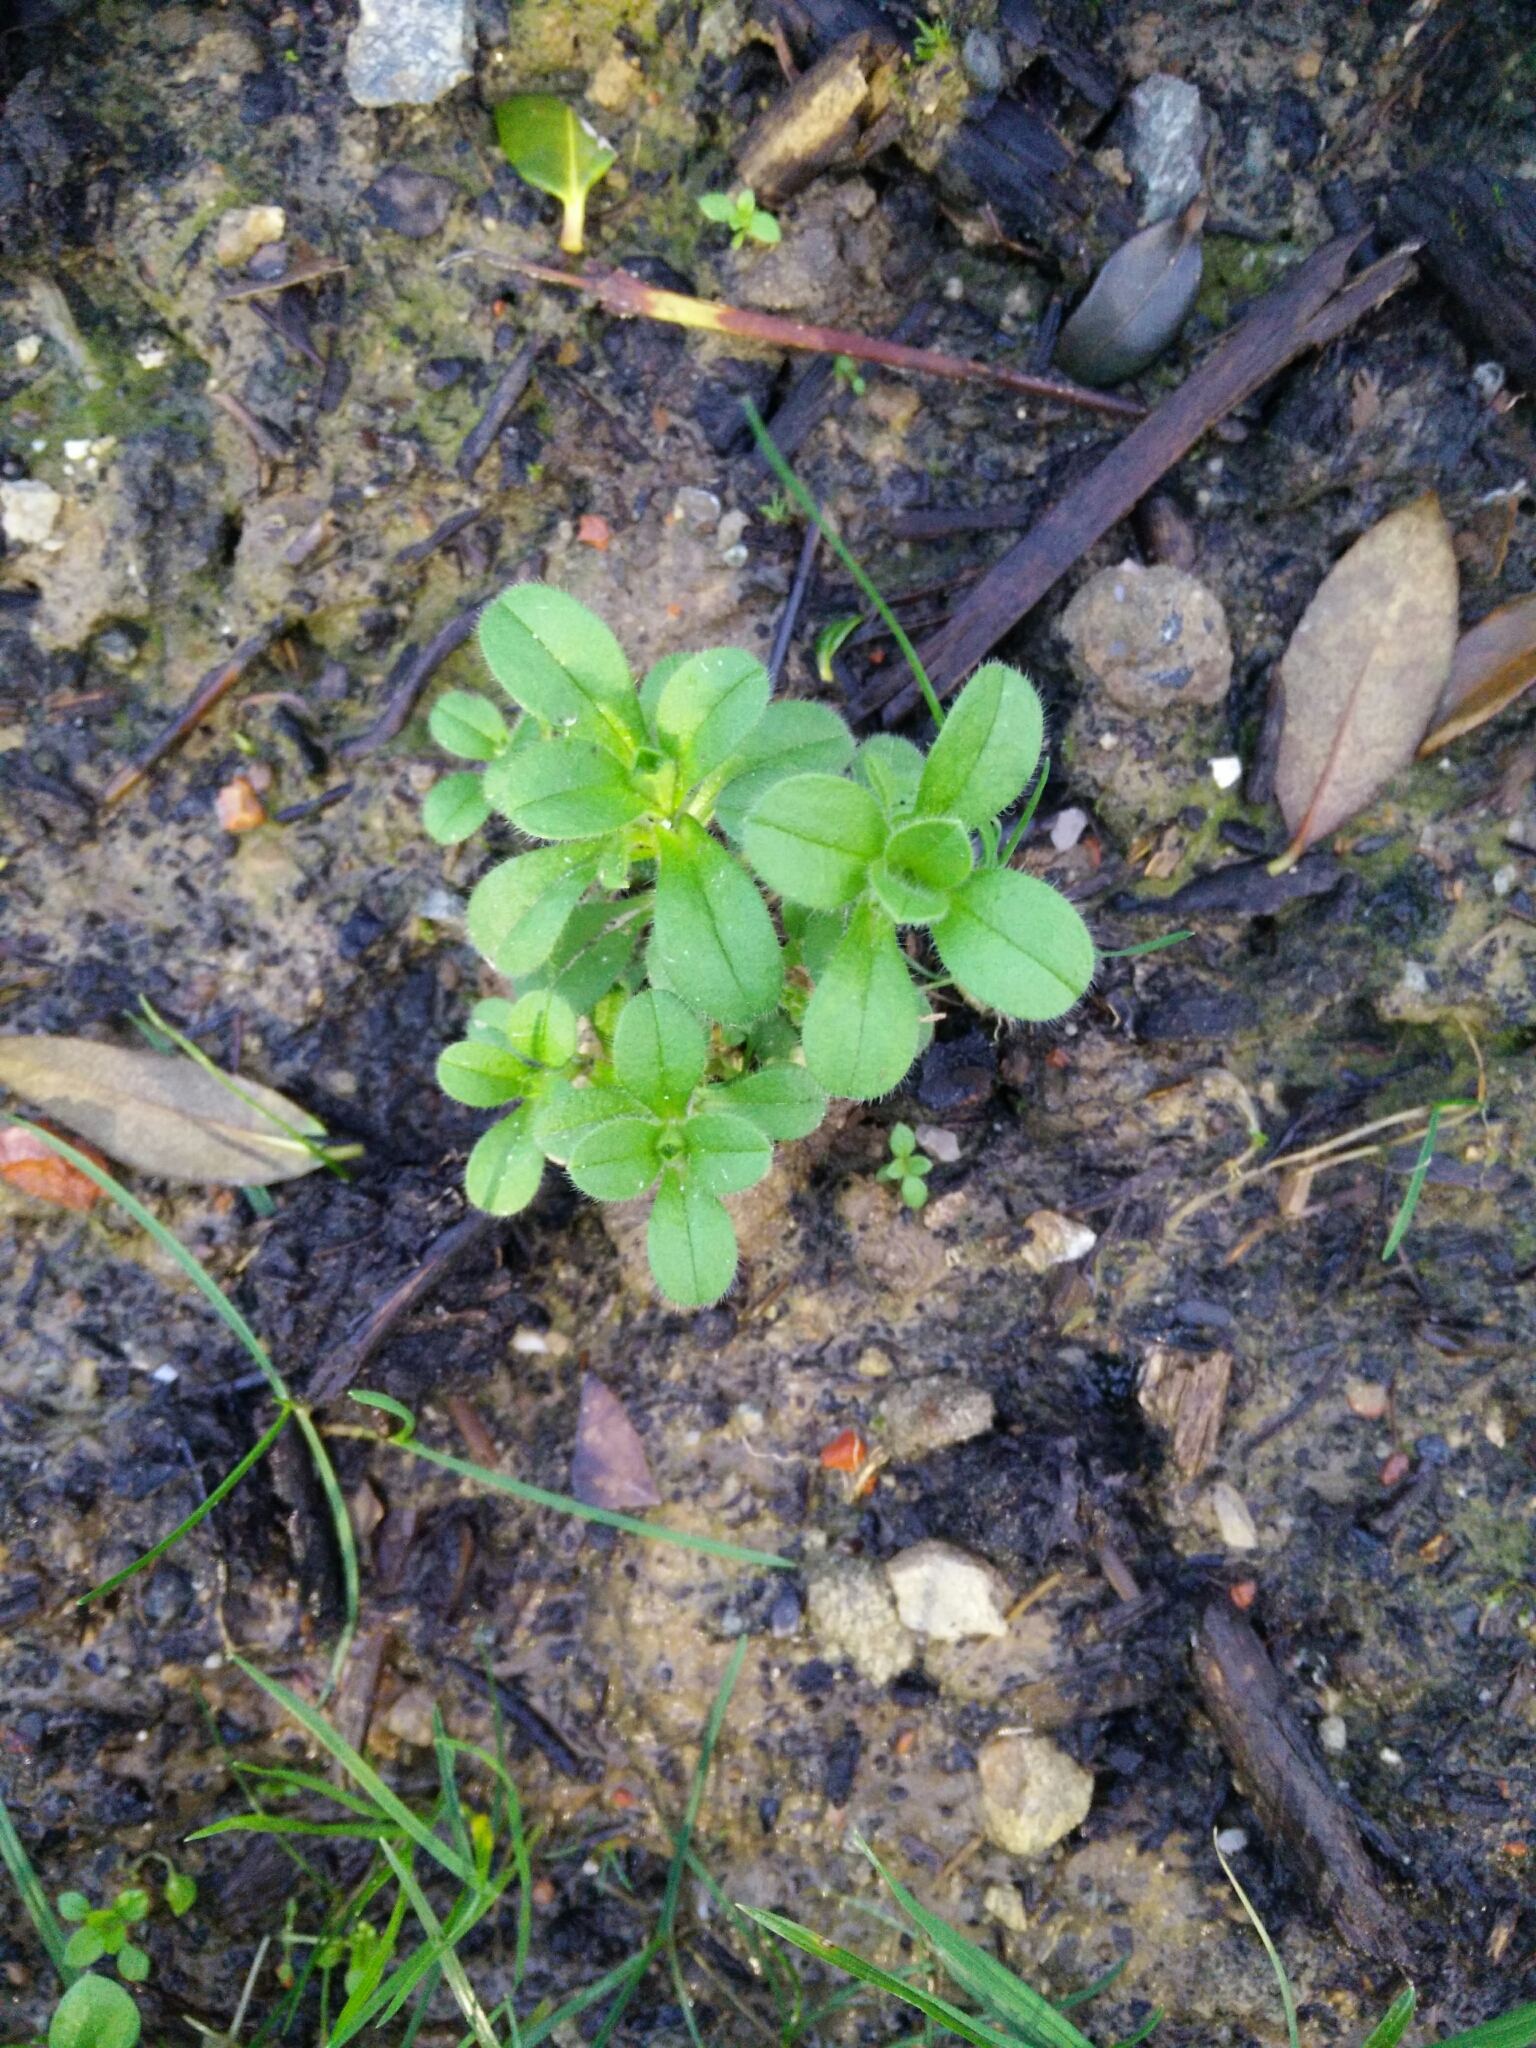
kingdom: Plantae
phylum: Tracheophyta
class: Magnoliopsida
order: Caryophyllales
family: Caryophyllaceae
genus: Cerastium
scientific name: Cerastium glomeratum
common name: Sticky chickweed
